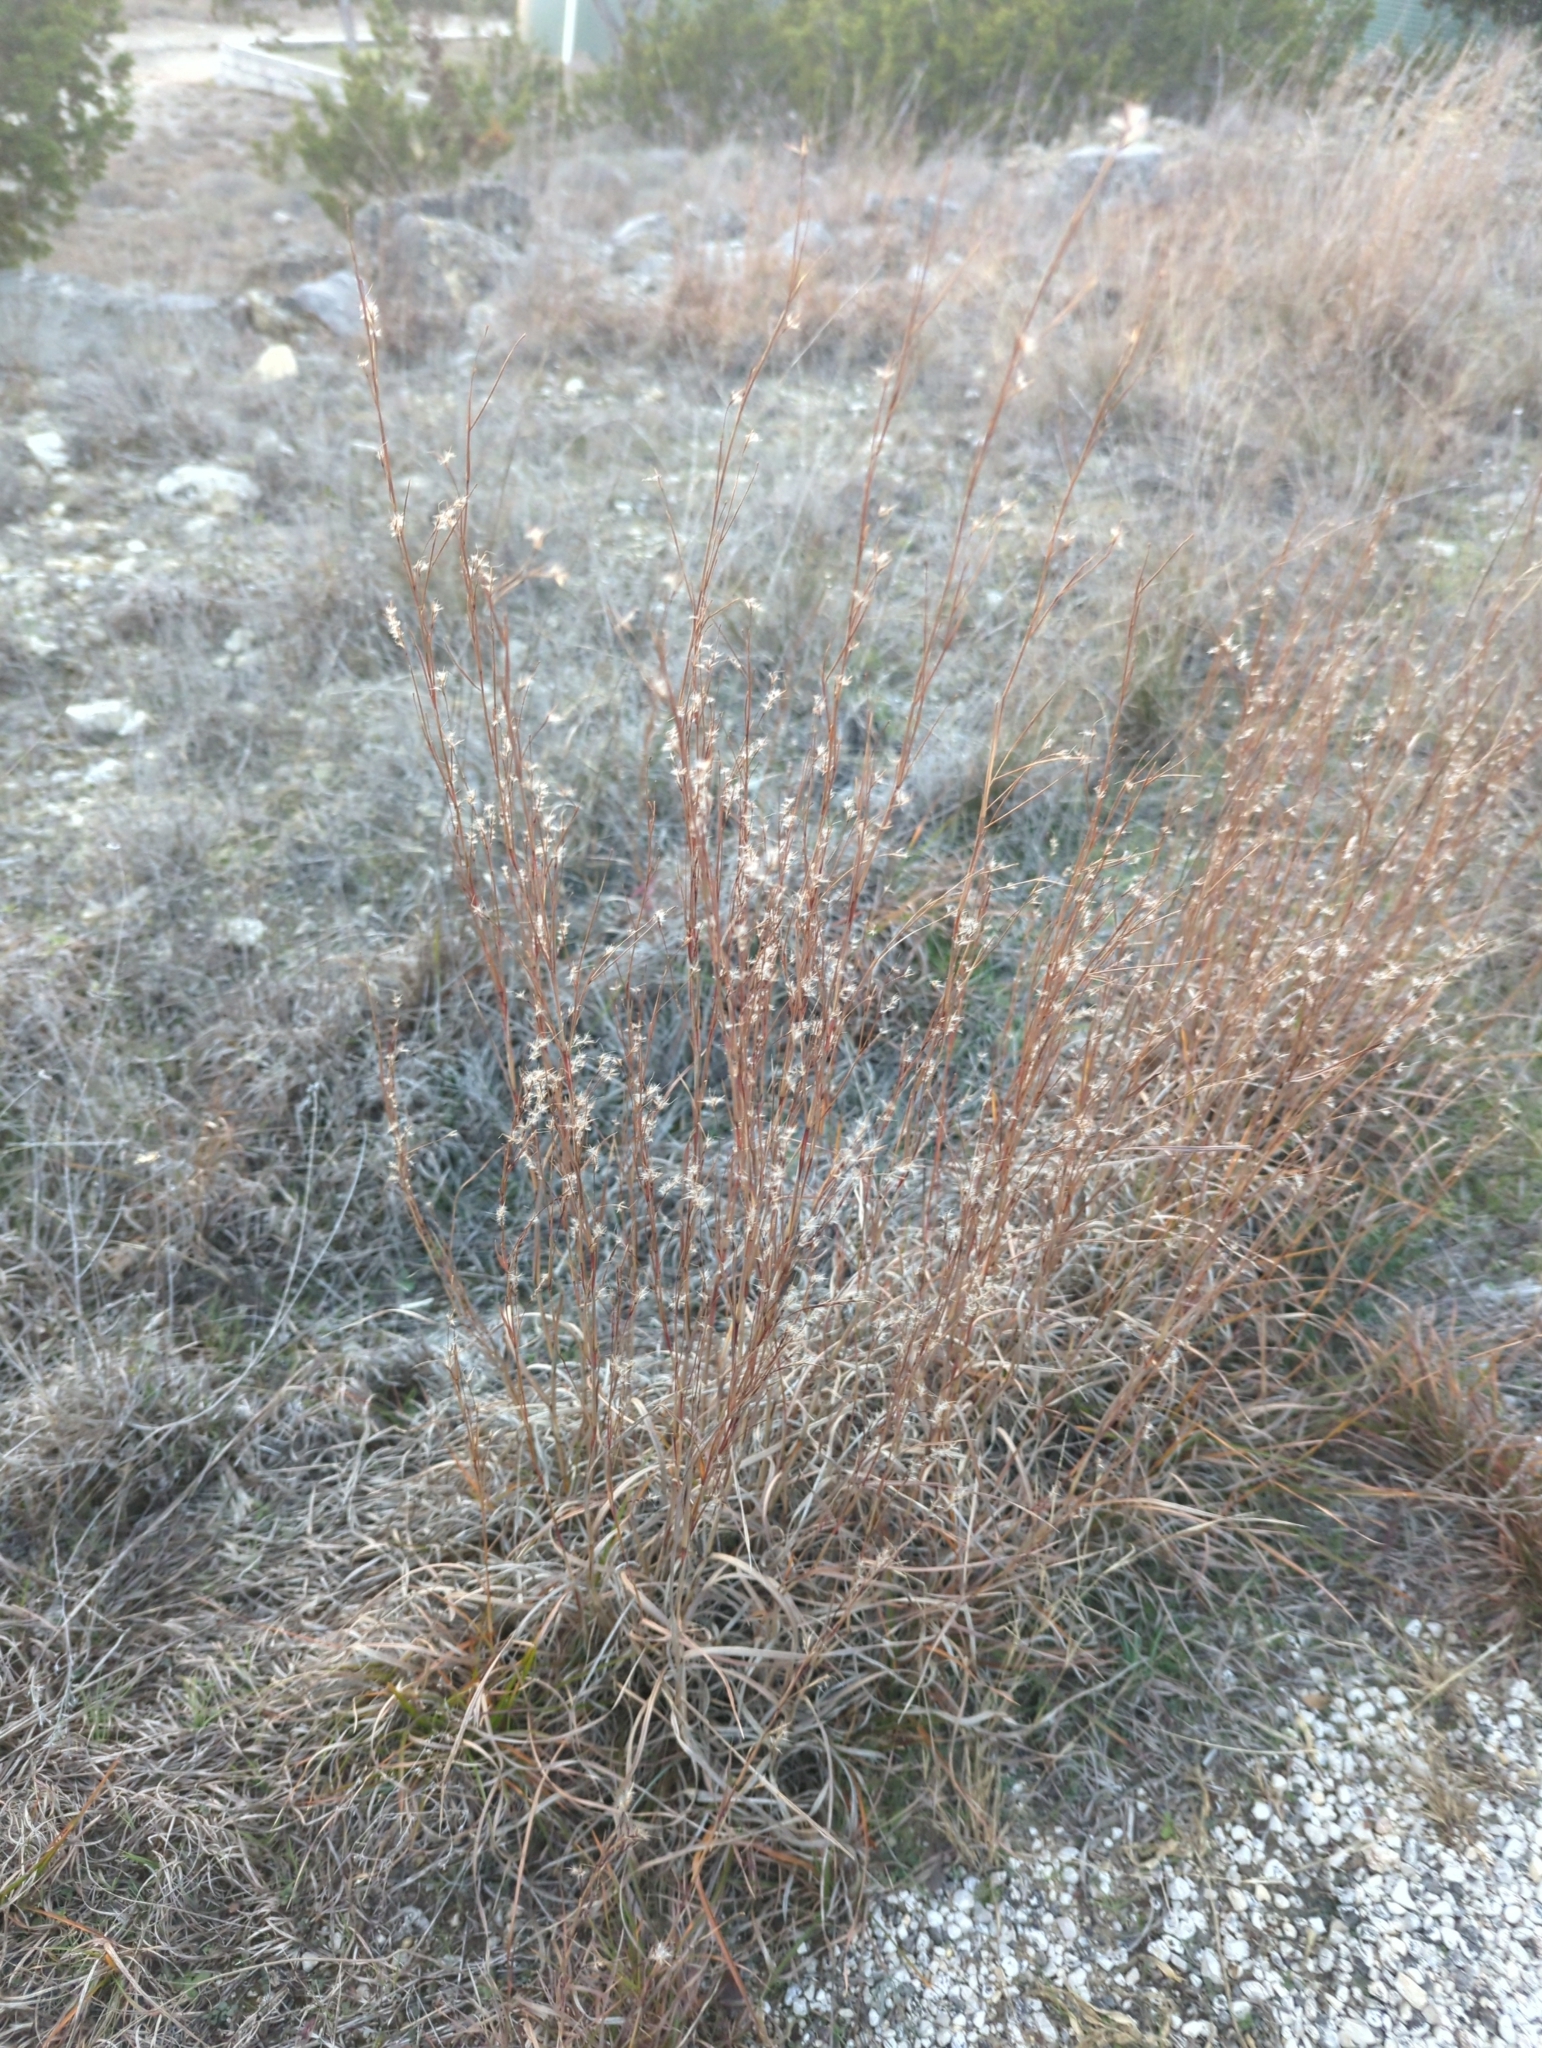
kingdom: Plantae
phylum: Tracheophyta
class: Liliopsida
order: Poales
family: Poaceae
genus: Schizachyrium
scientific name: Schizachyrium scoparium
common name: Little bluestem
